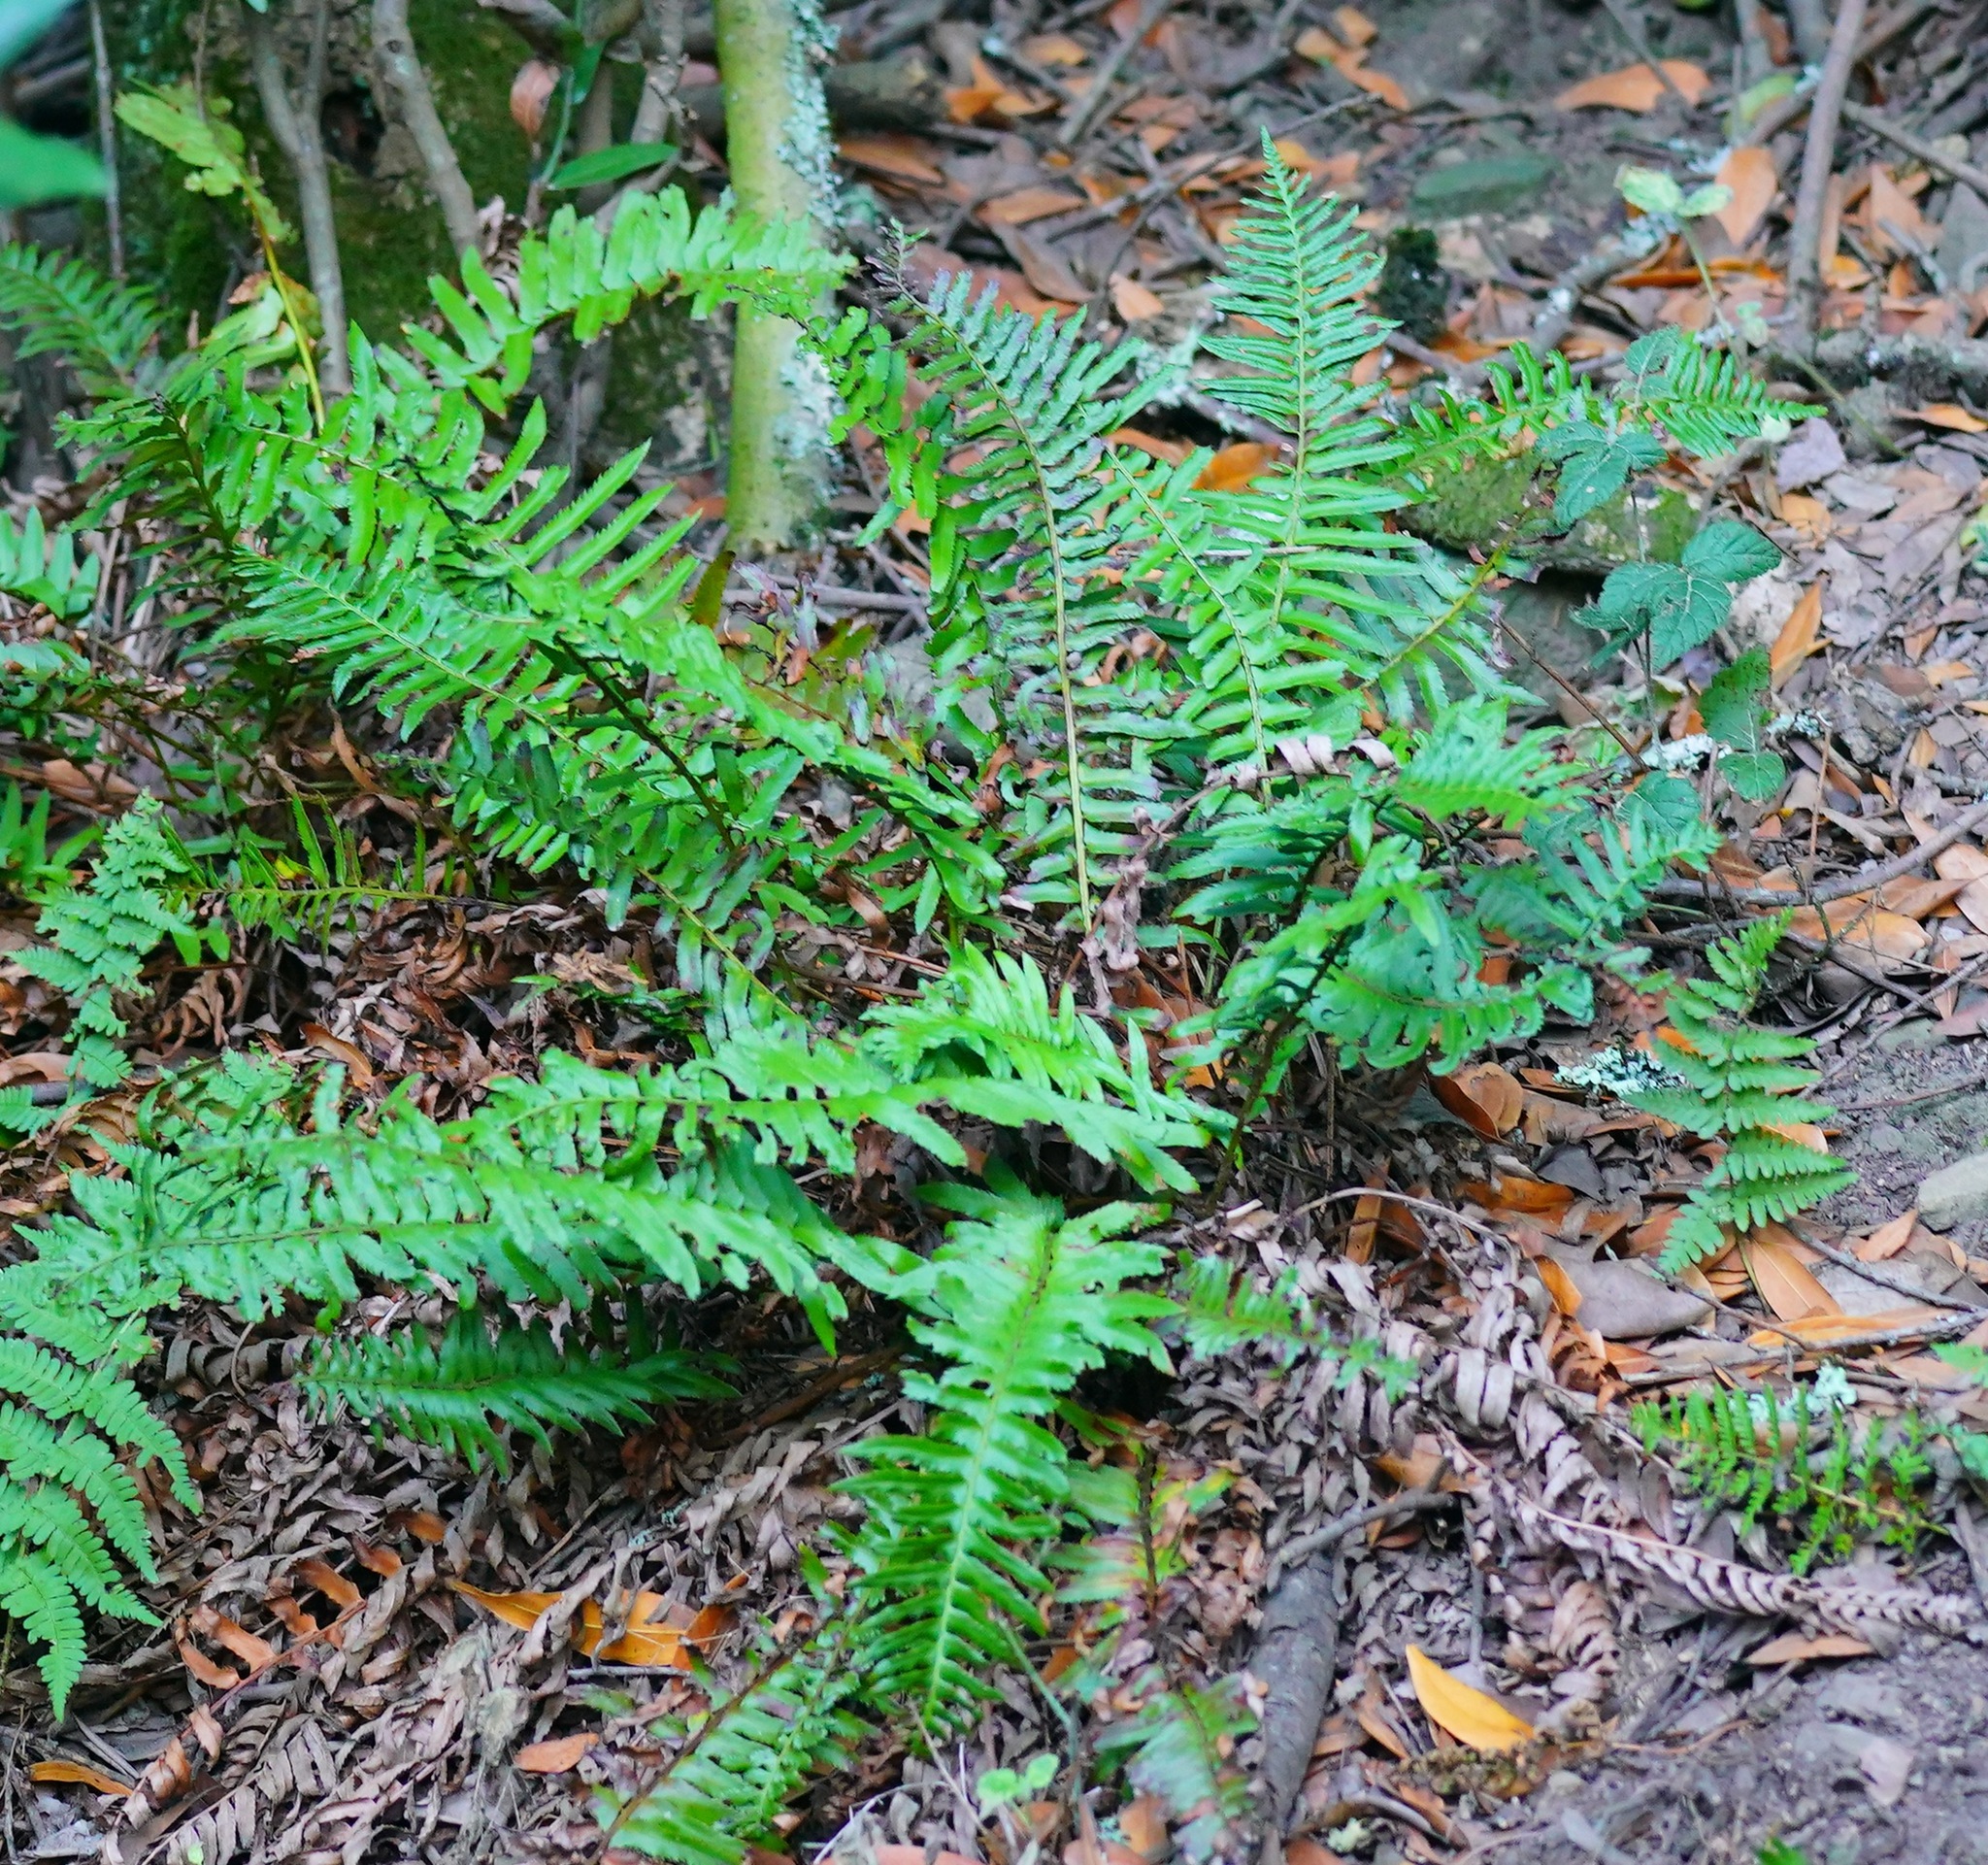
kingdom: Plantae
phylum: Tracheophyta
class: Polypodiopsida
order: Polypodiales
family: Dryopteridaceae
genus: Polystichum
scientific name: Polystichum munitum
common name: Western sword-fern
